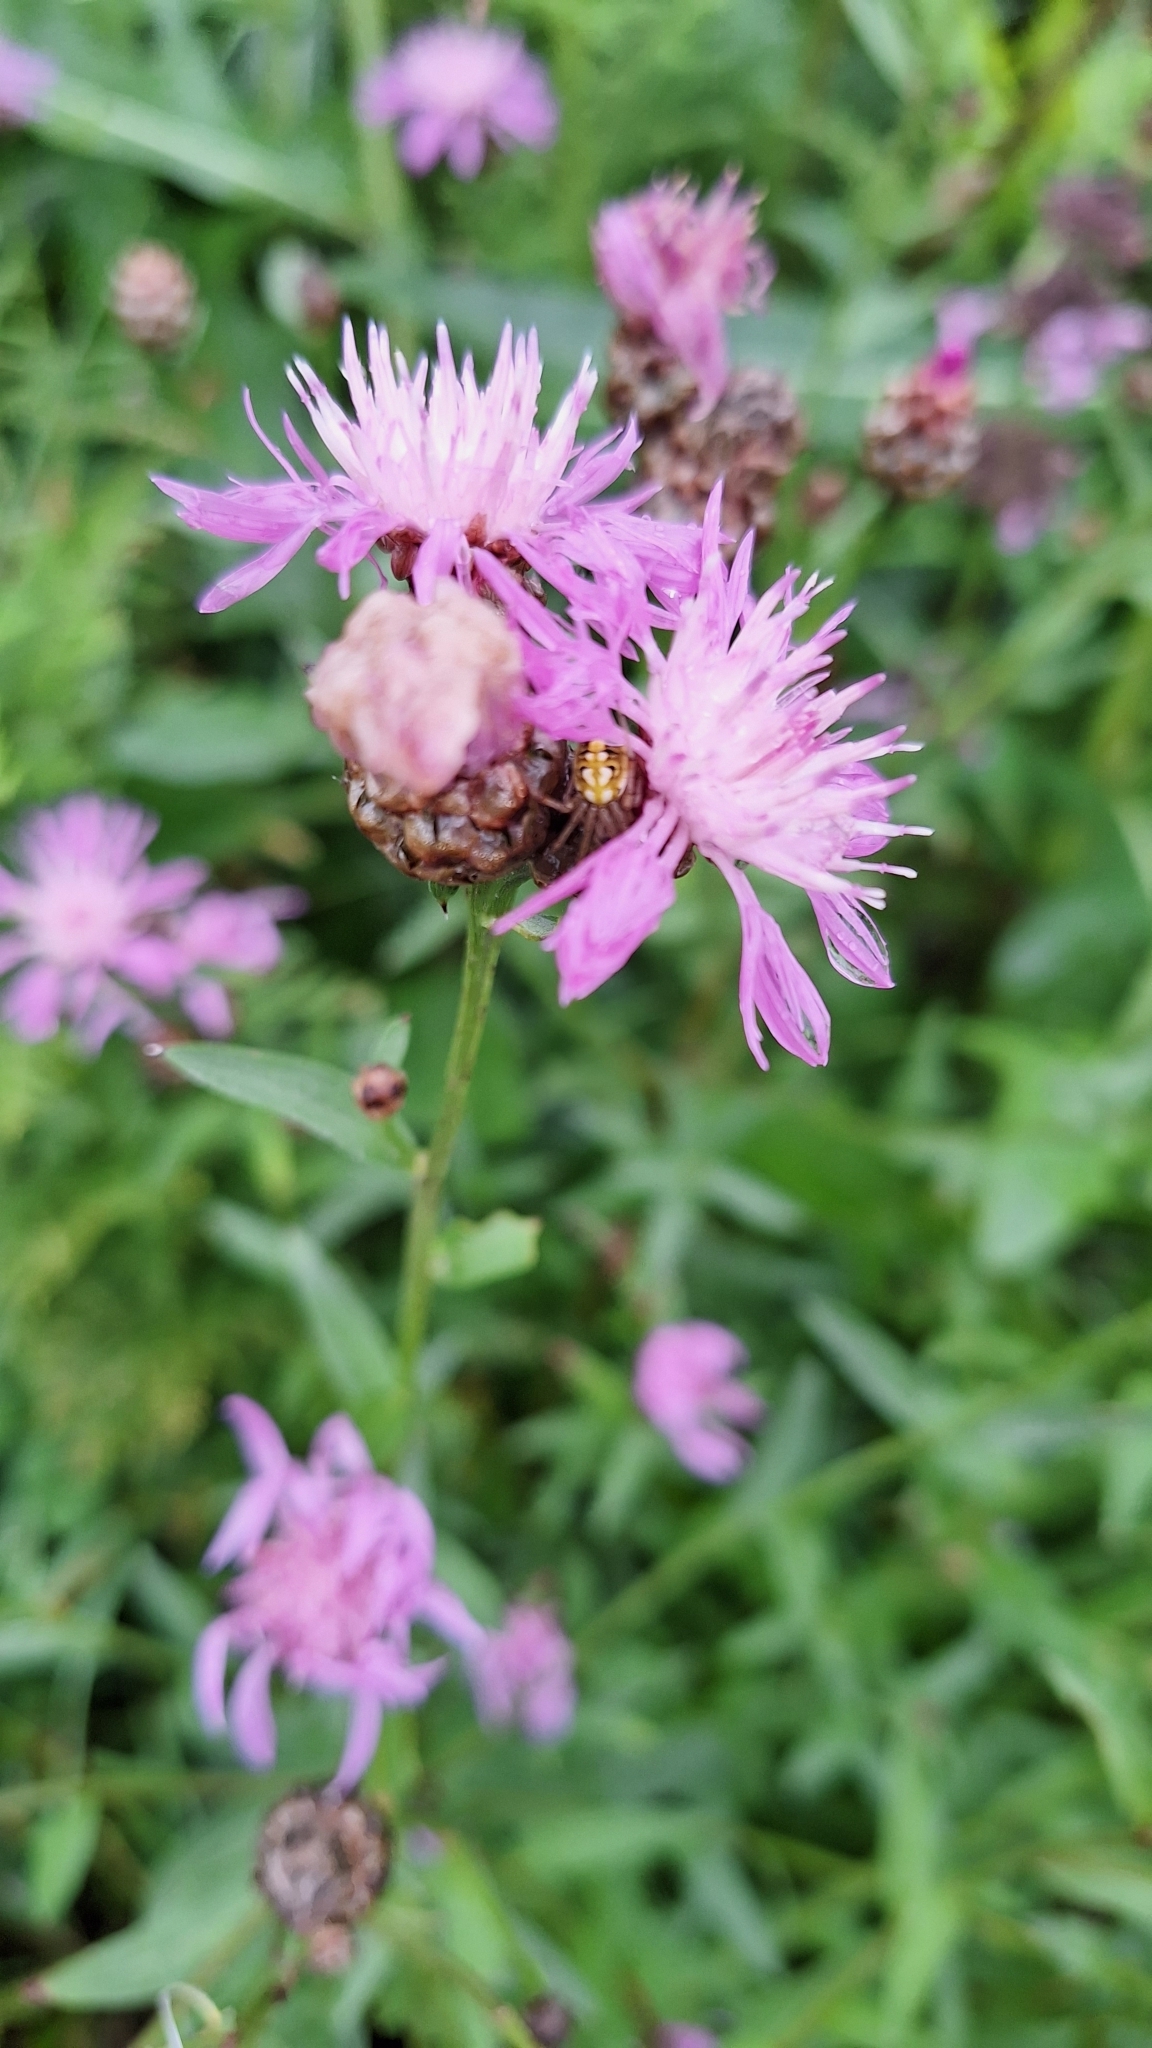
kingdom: Plantae
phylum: Tracheophyta
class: Magnoliopsida
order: Asterales
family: Asteraceae
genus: Centaurea
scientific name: Centaurea jacea
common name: Brown knapweed
